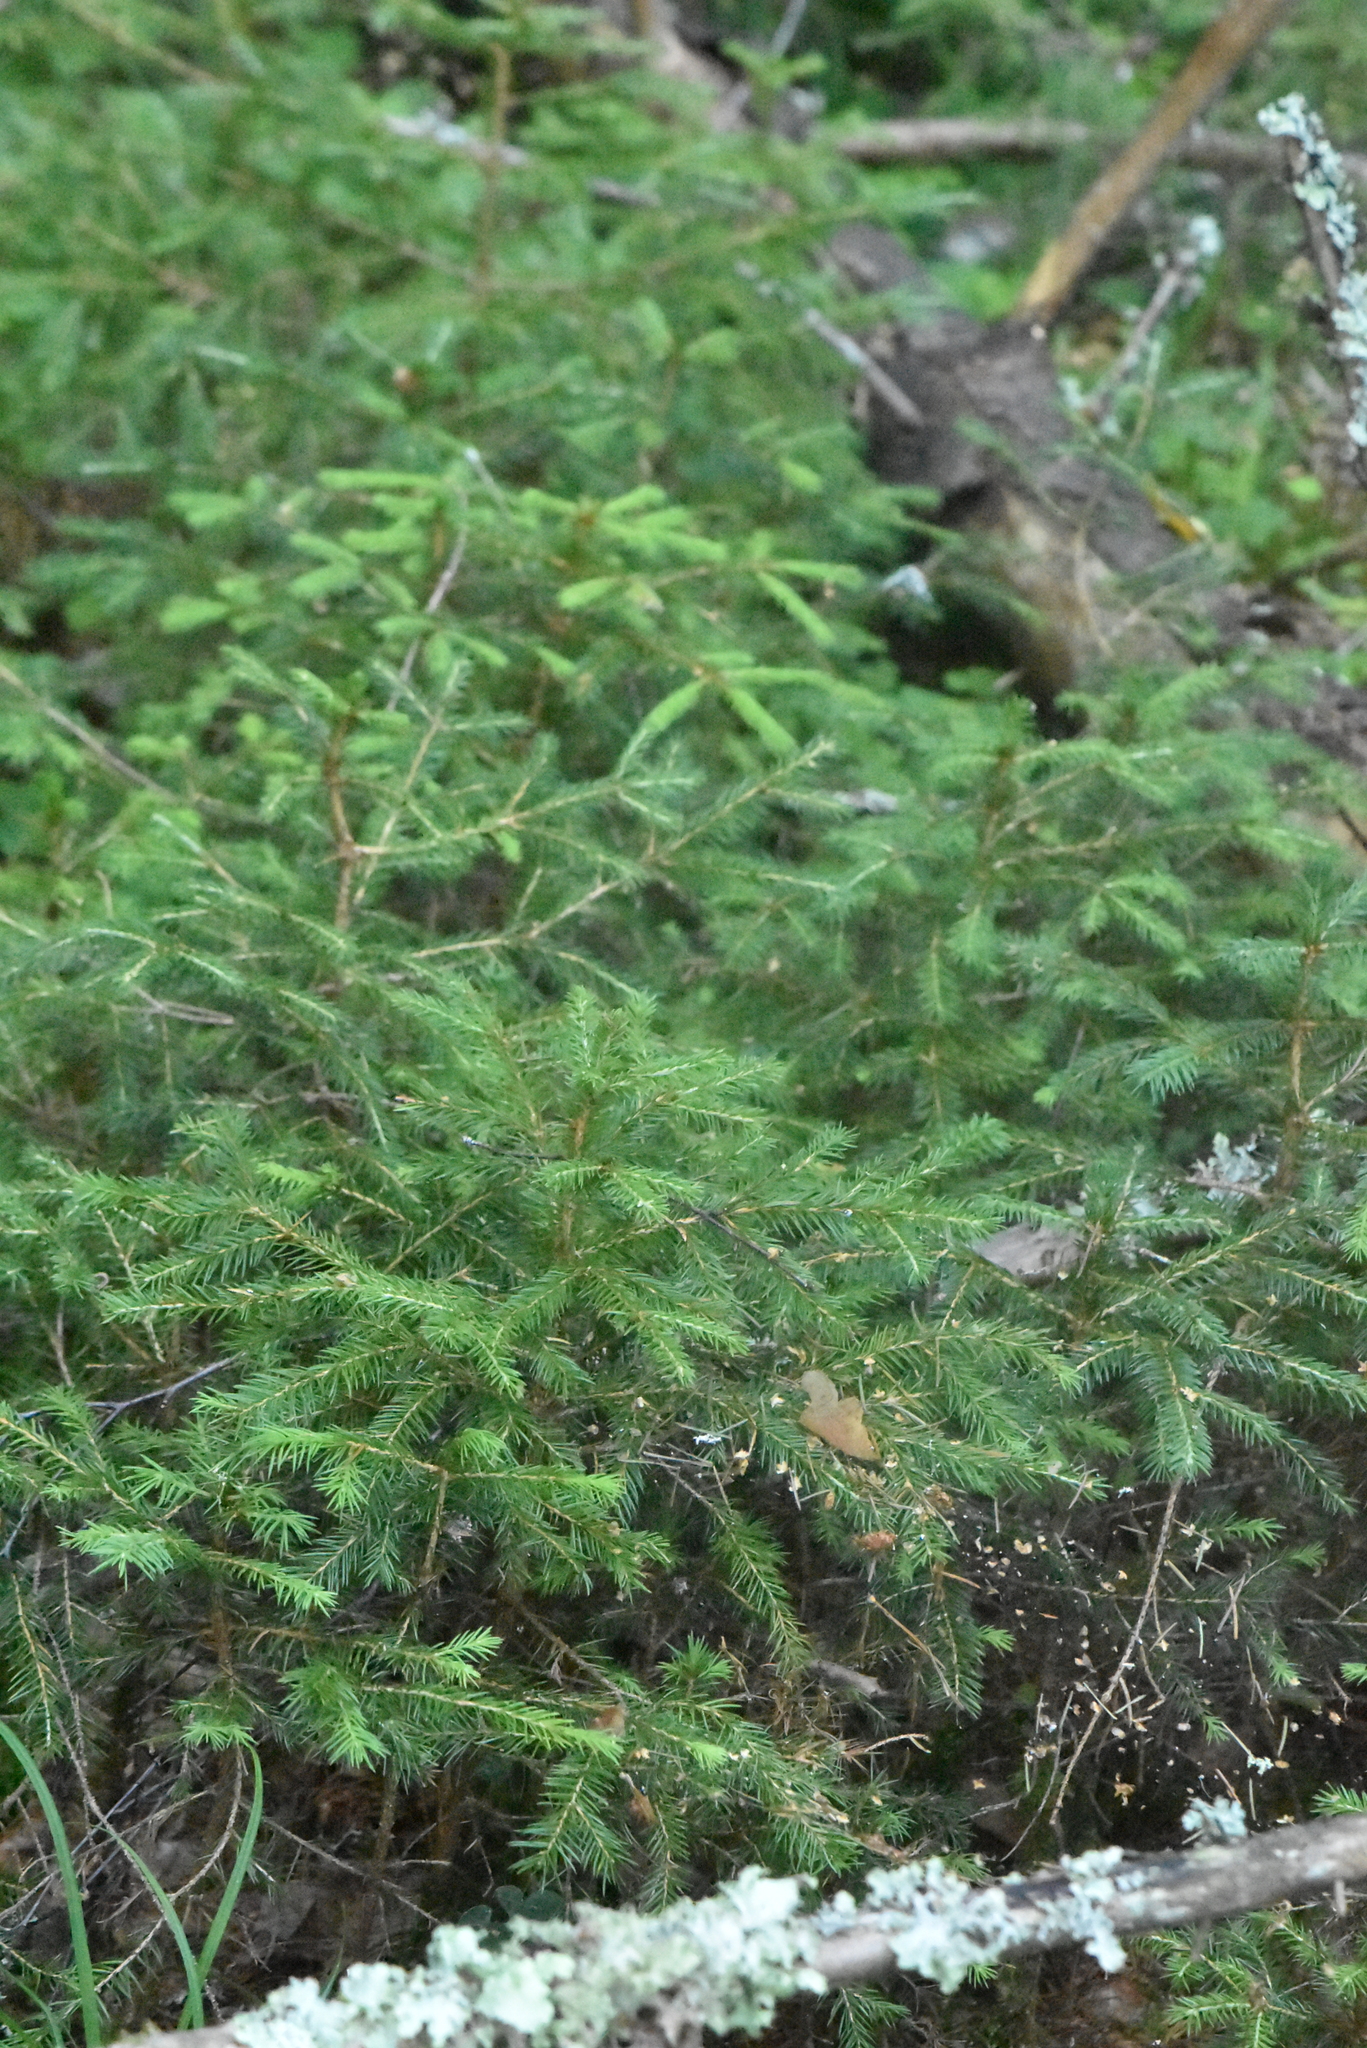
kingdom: Plantae
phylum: Tracheophyta
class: Pinopsida
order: Pinales
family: Pinaceae
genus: Picea
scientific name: Picea abies
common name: Norway spruce
